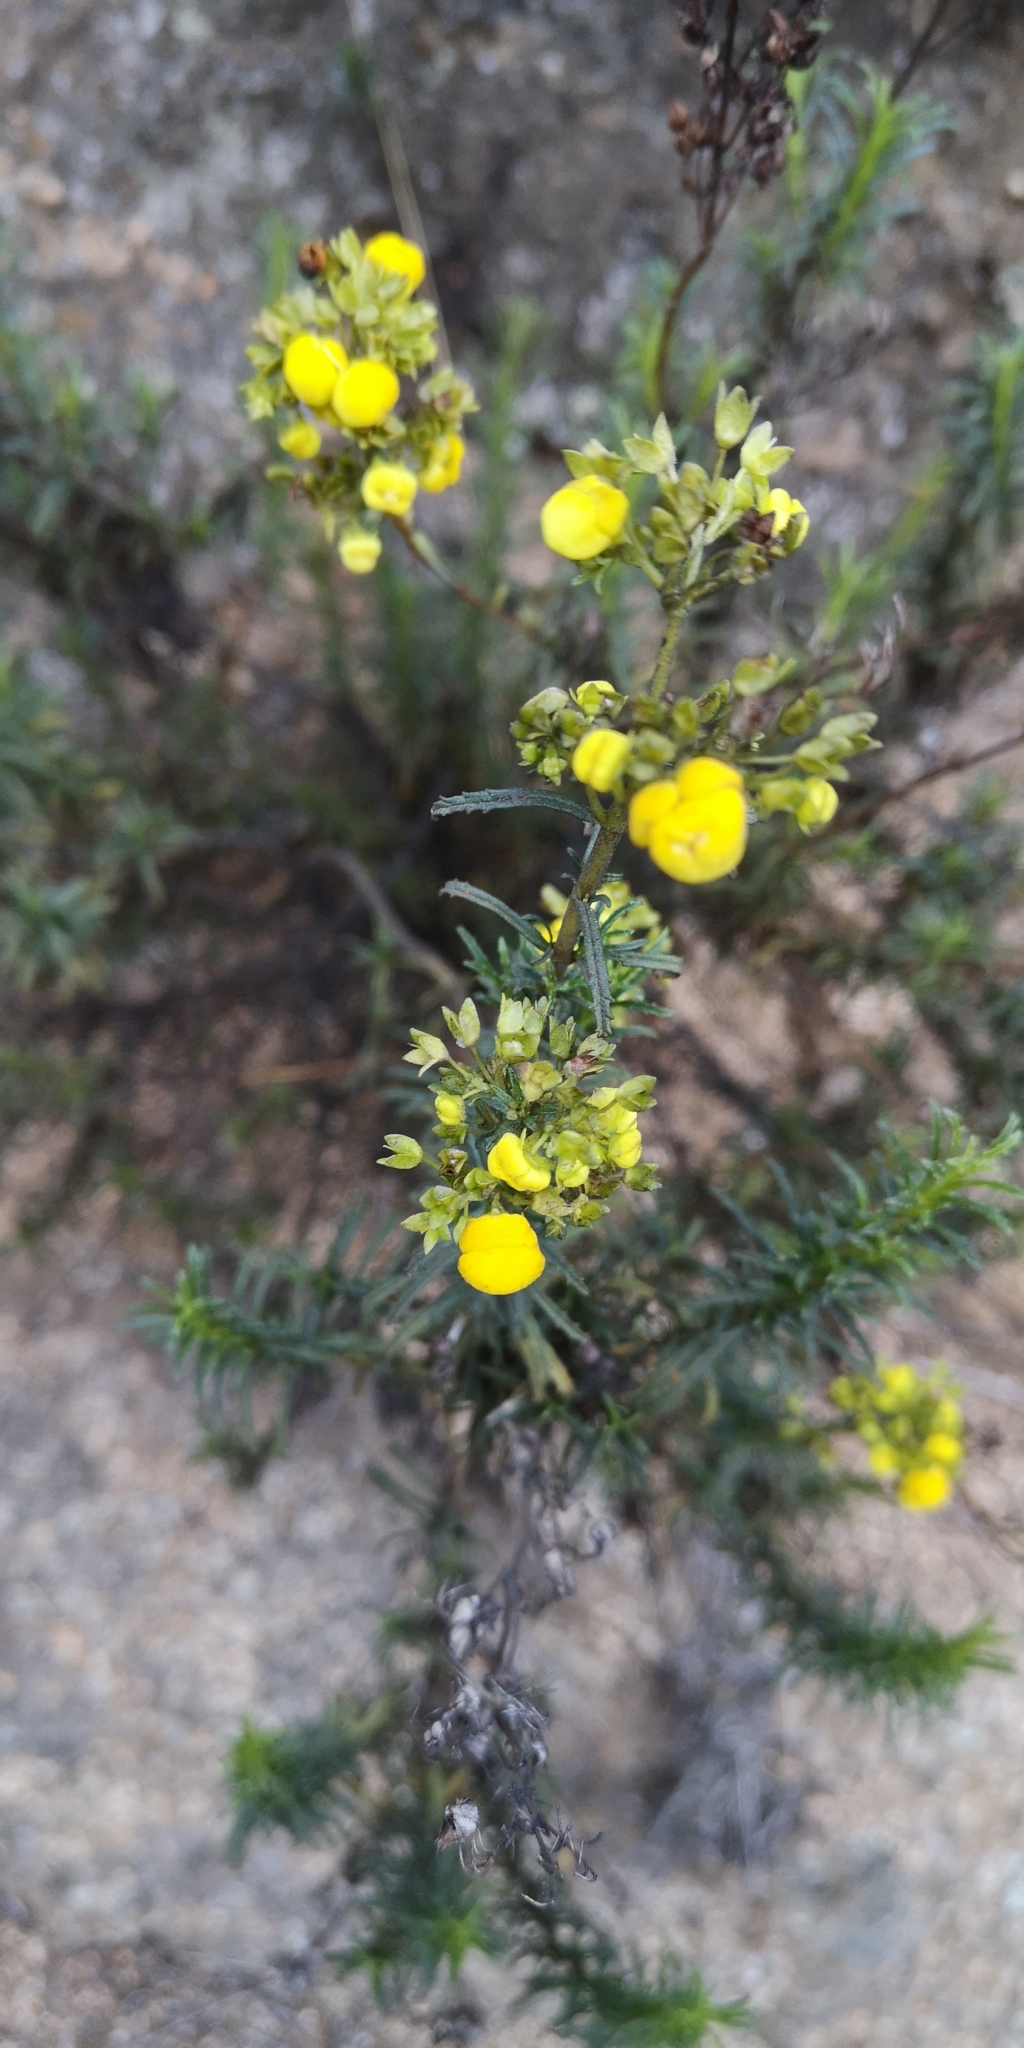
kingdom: Plantae
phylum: Tracheophyta
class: Magnoliopsida
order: Lamiales
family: Calceolariaceae
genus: Calceolaria
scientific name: Calceolaria thyrsiflora
